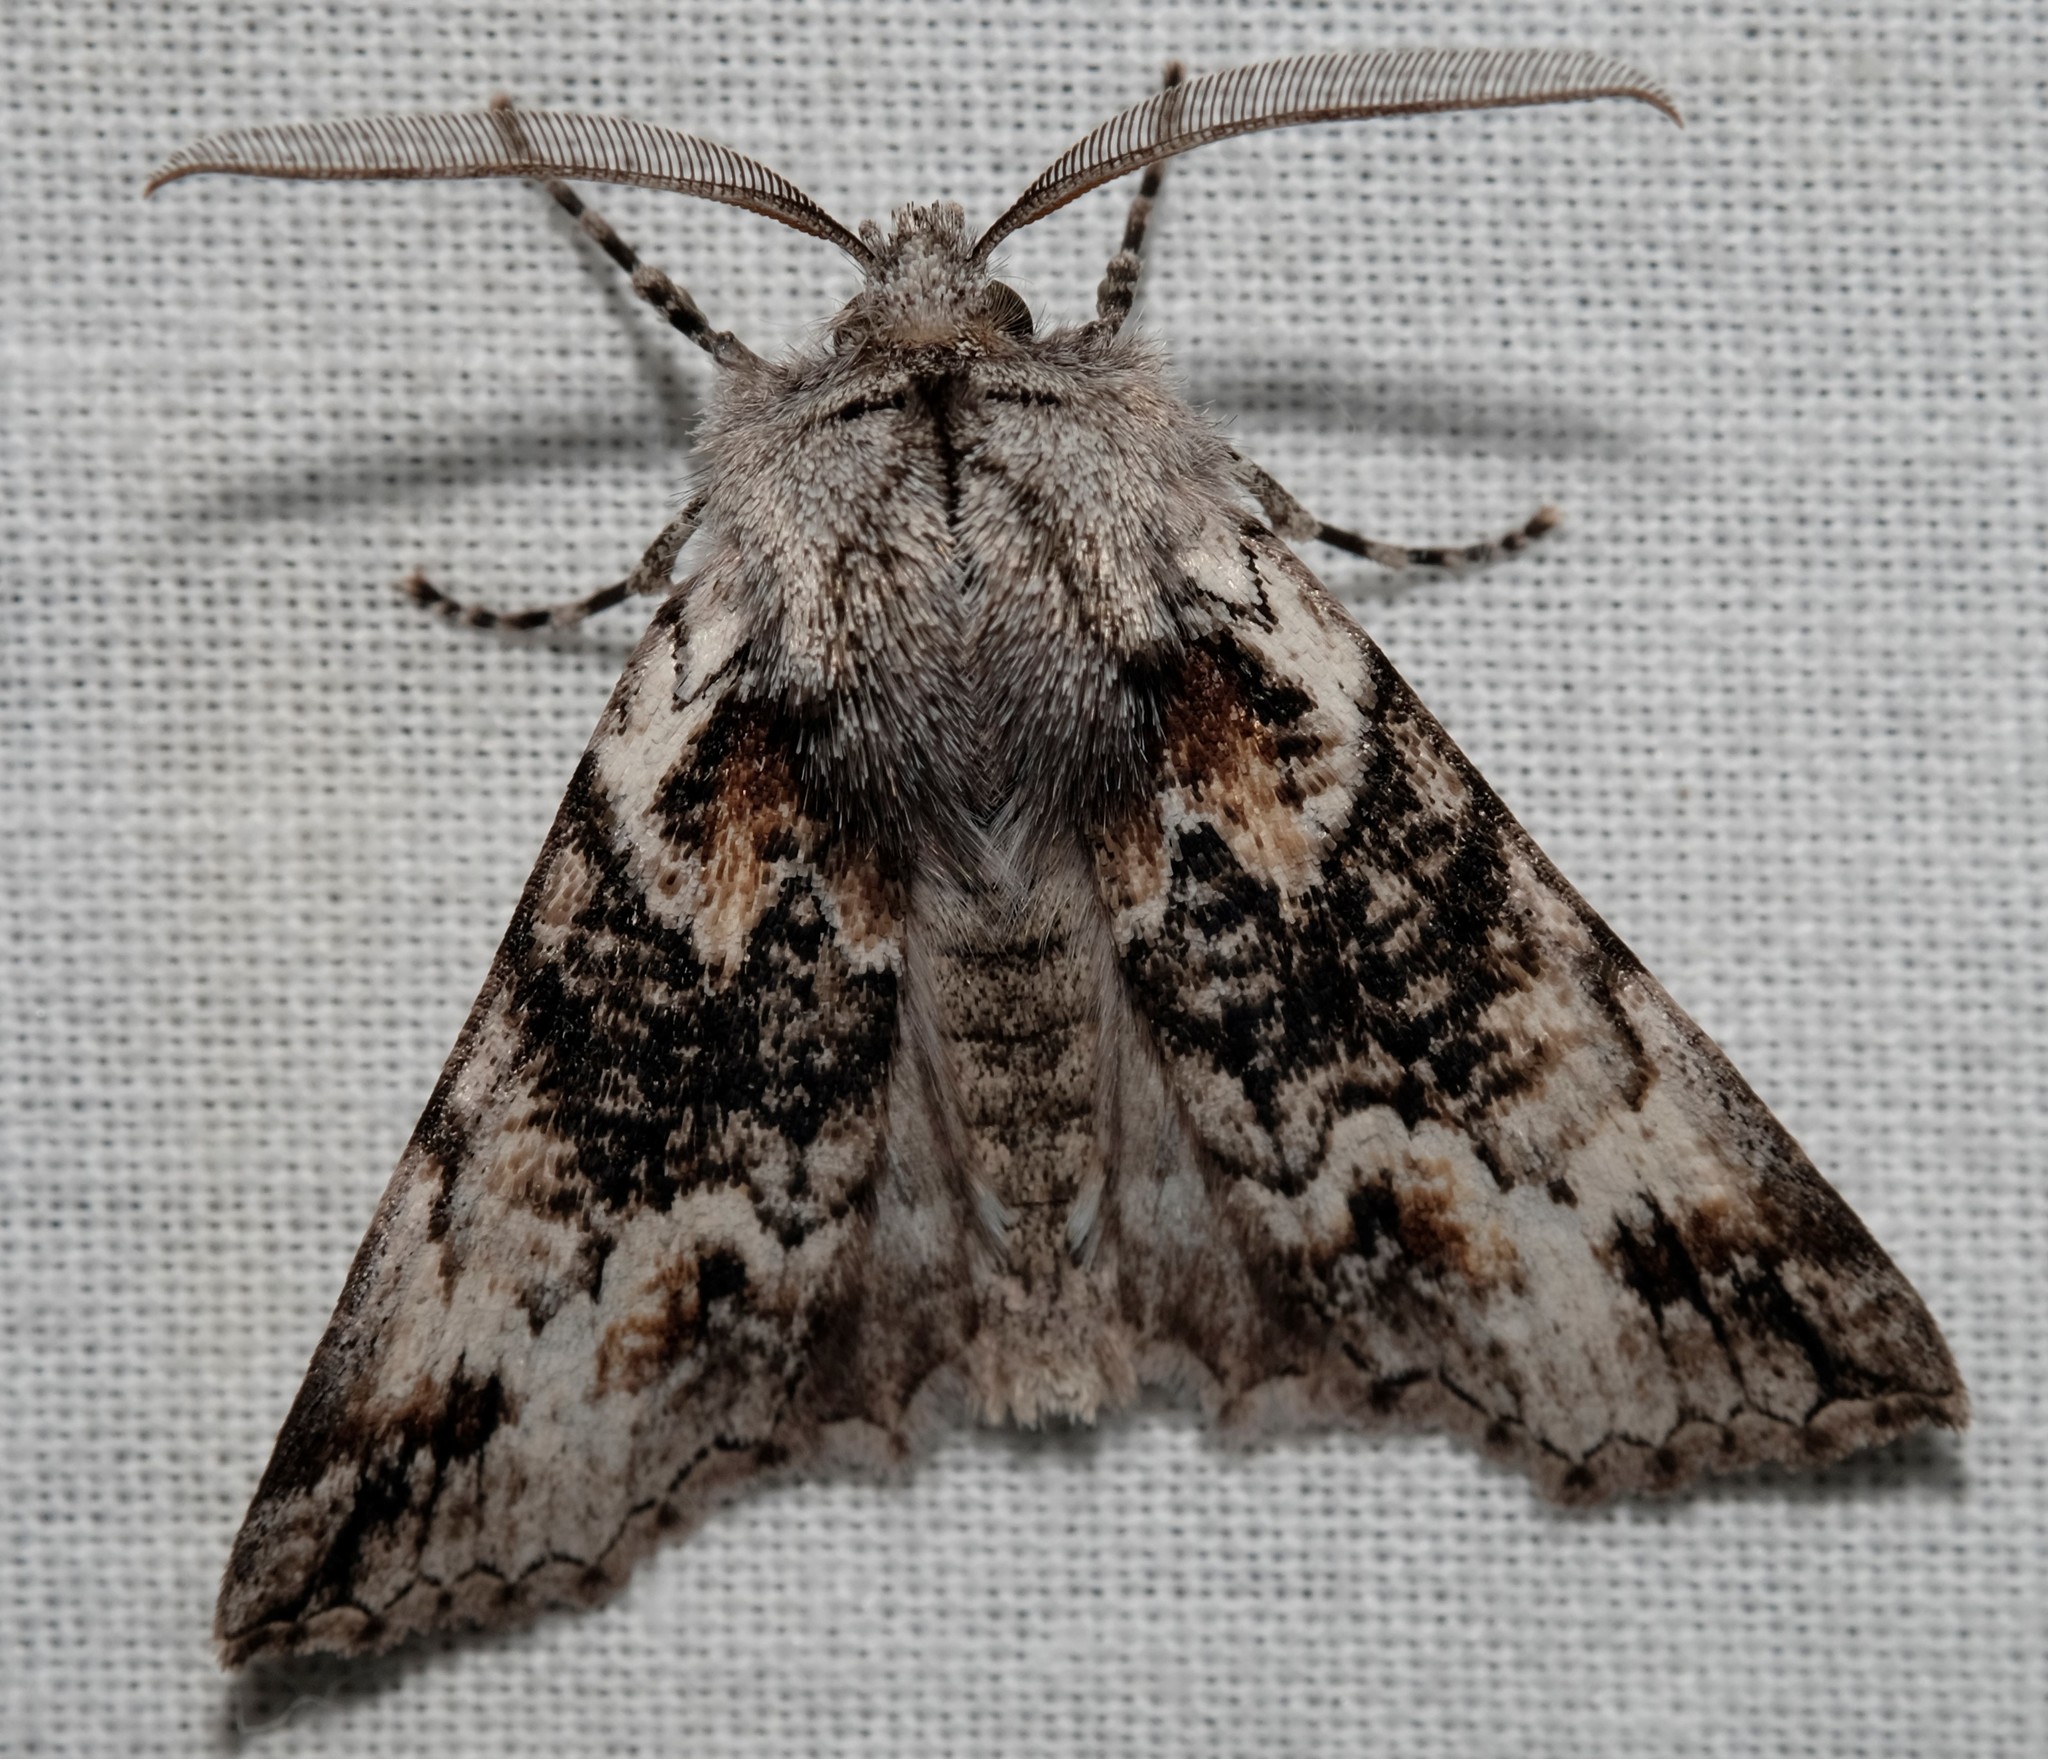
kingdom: Animalia
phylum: Arthropoda
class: Insecta
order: Lepidoptera
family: Geometridae
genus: Nisista
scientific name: Nisista galearia
